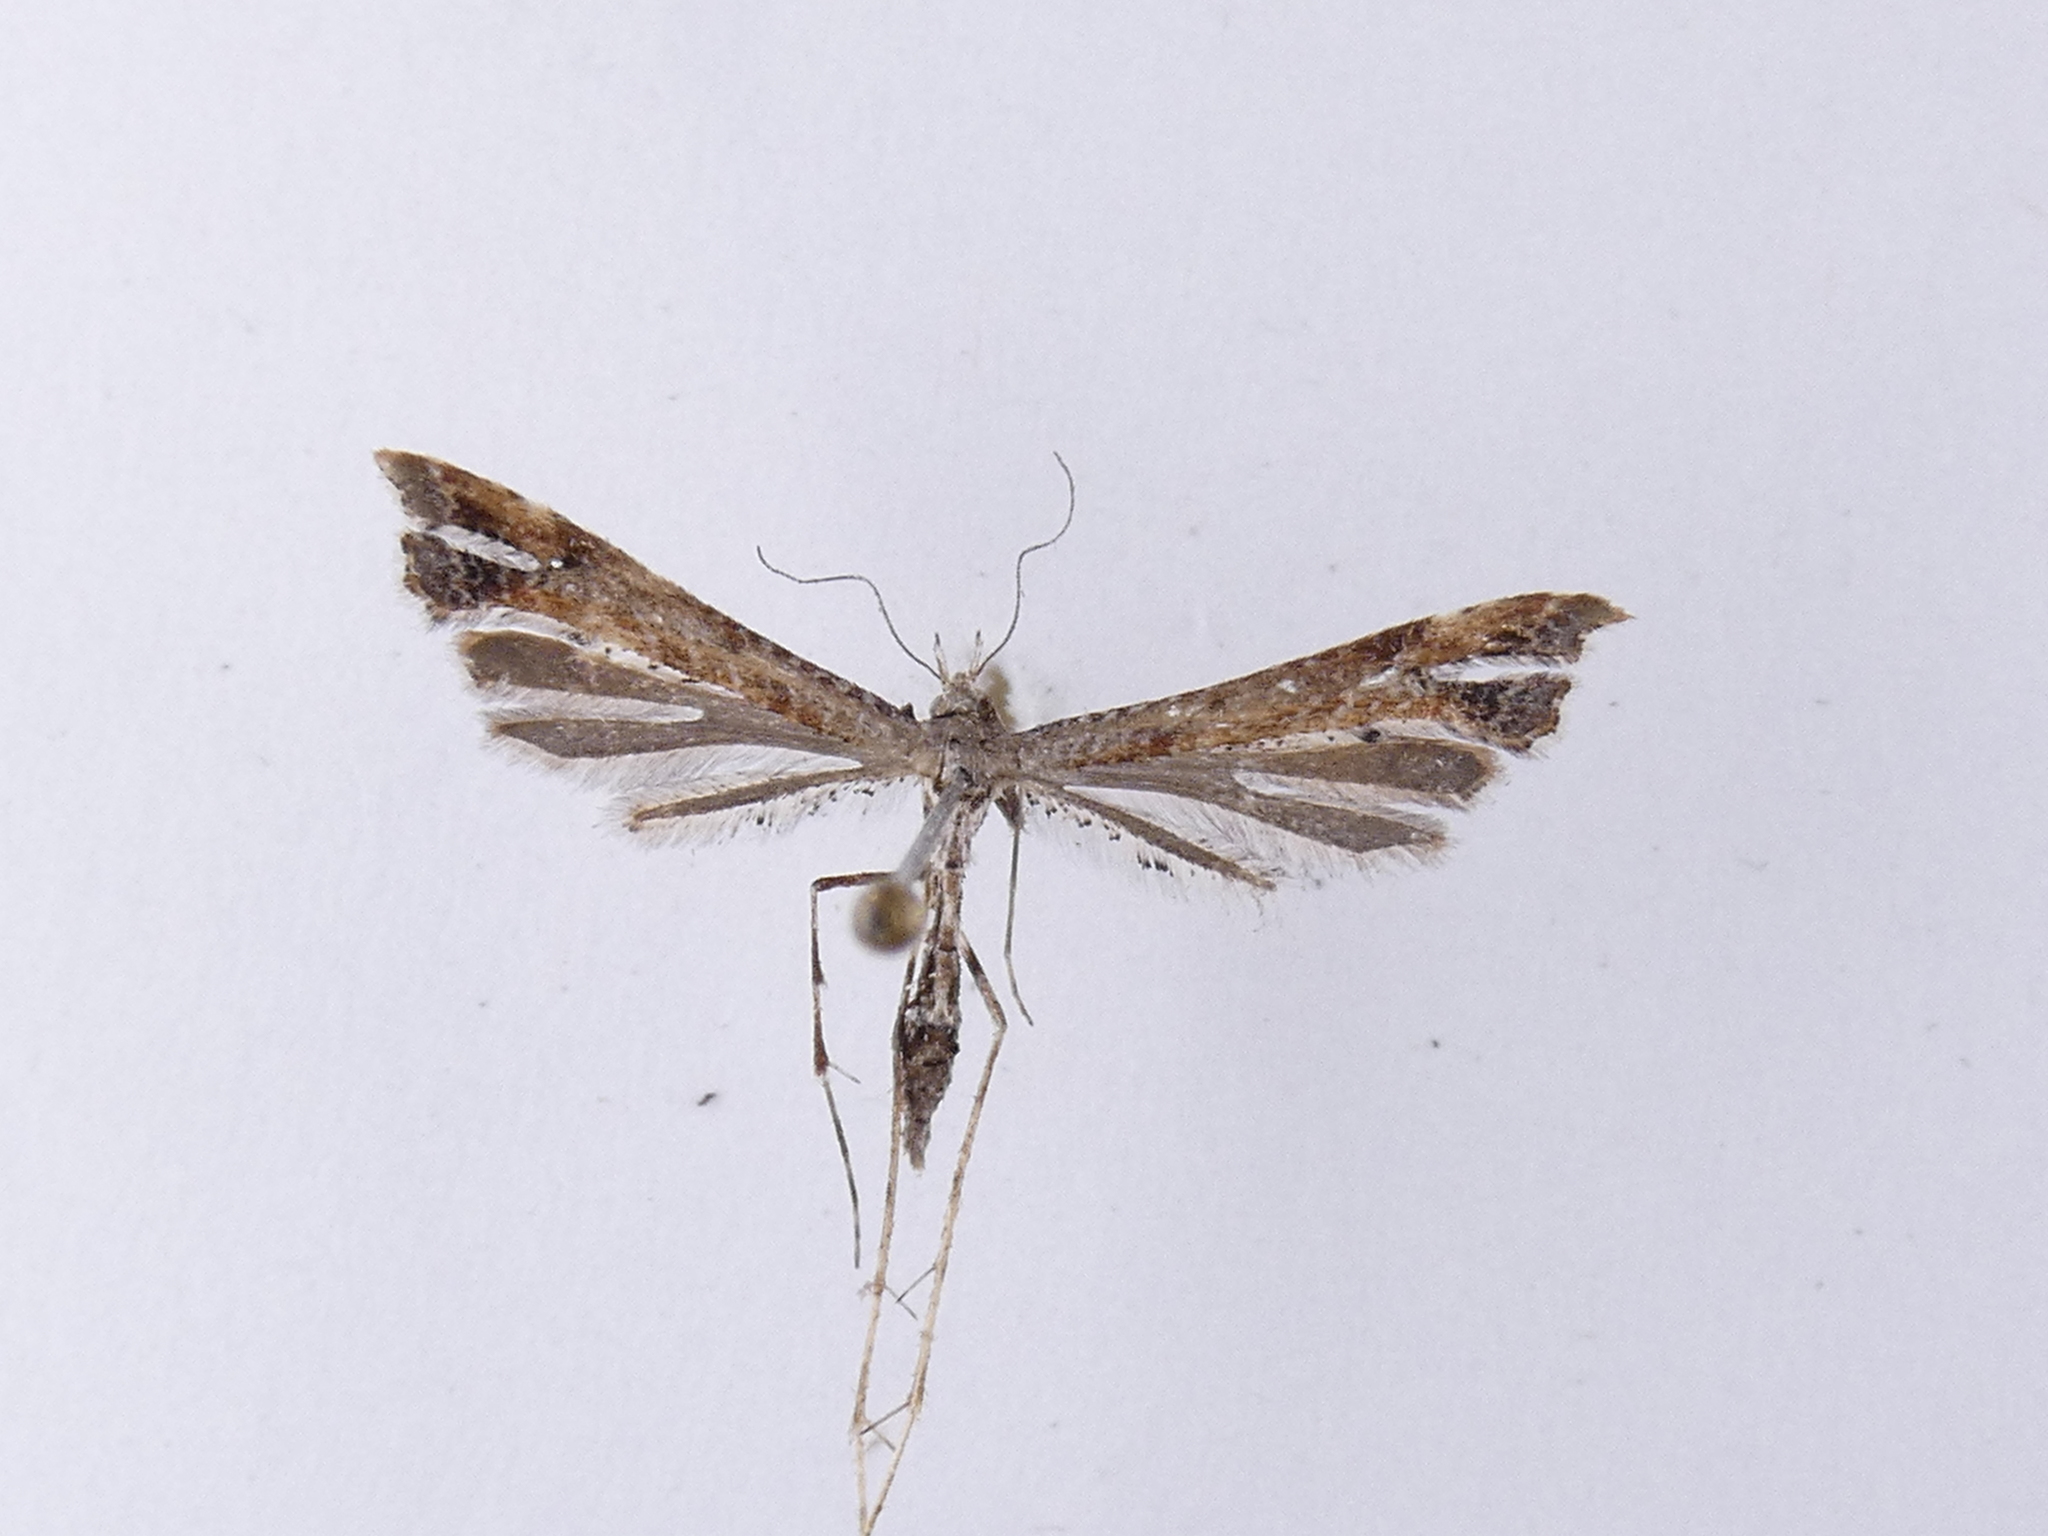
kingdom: Animalia
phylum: Arthropoda
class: Insecta
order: Lepidoptera
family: Pterophoridae
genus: Amblyptilia
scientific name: Amblyptilia repletalis
